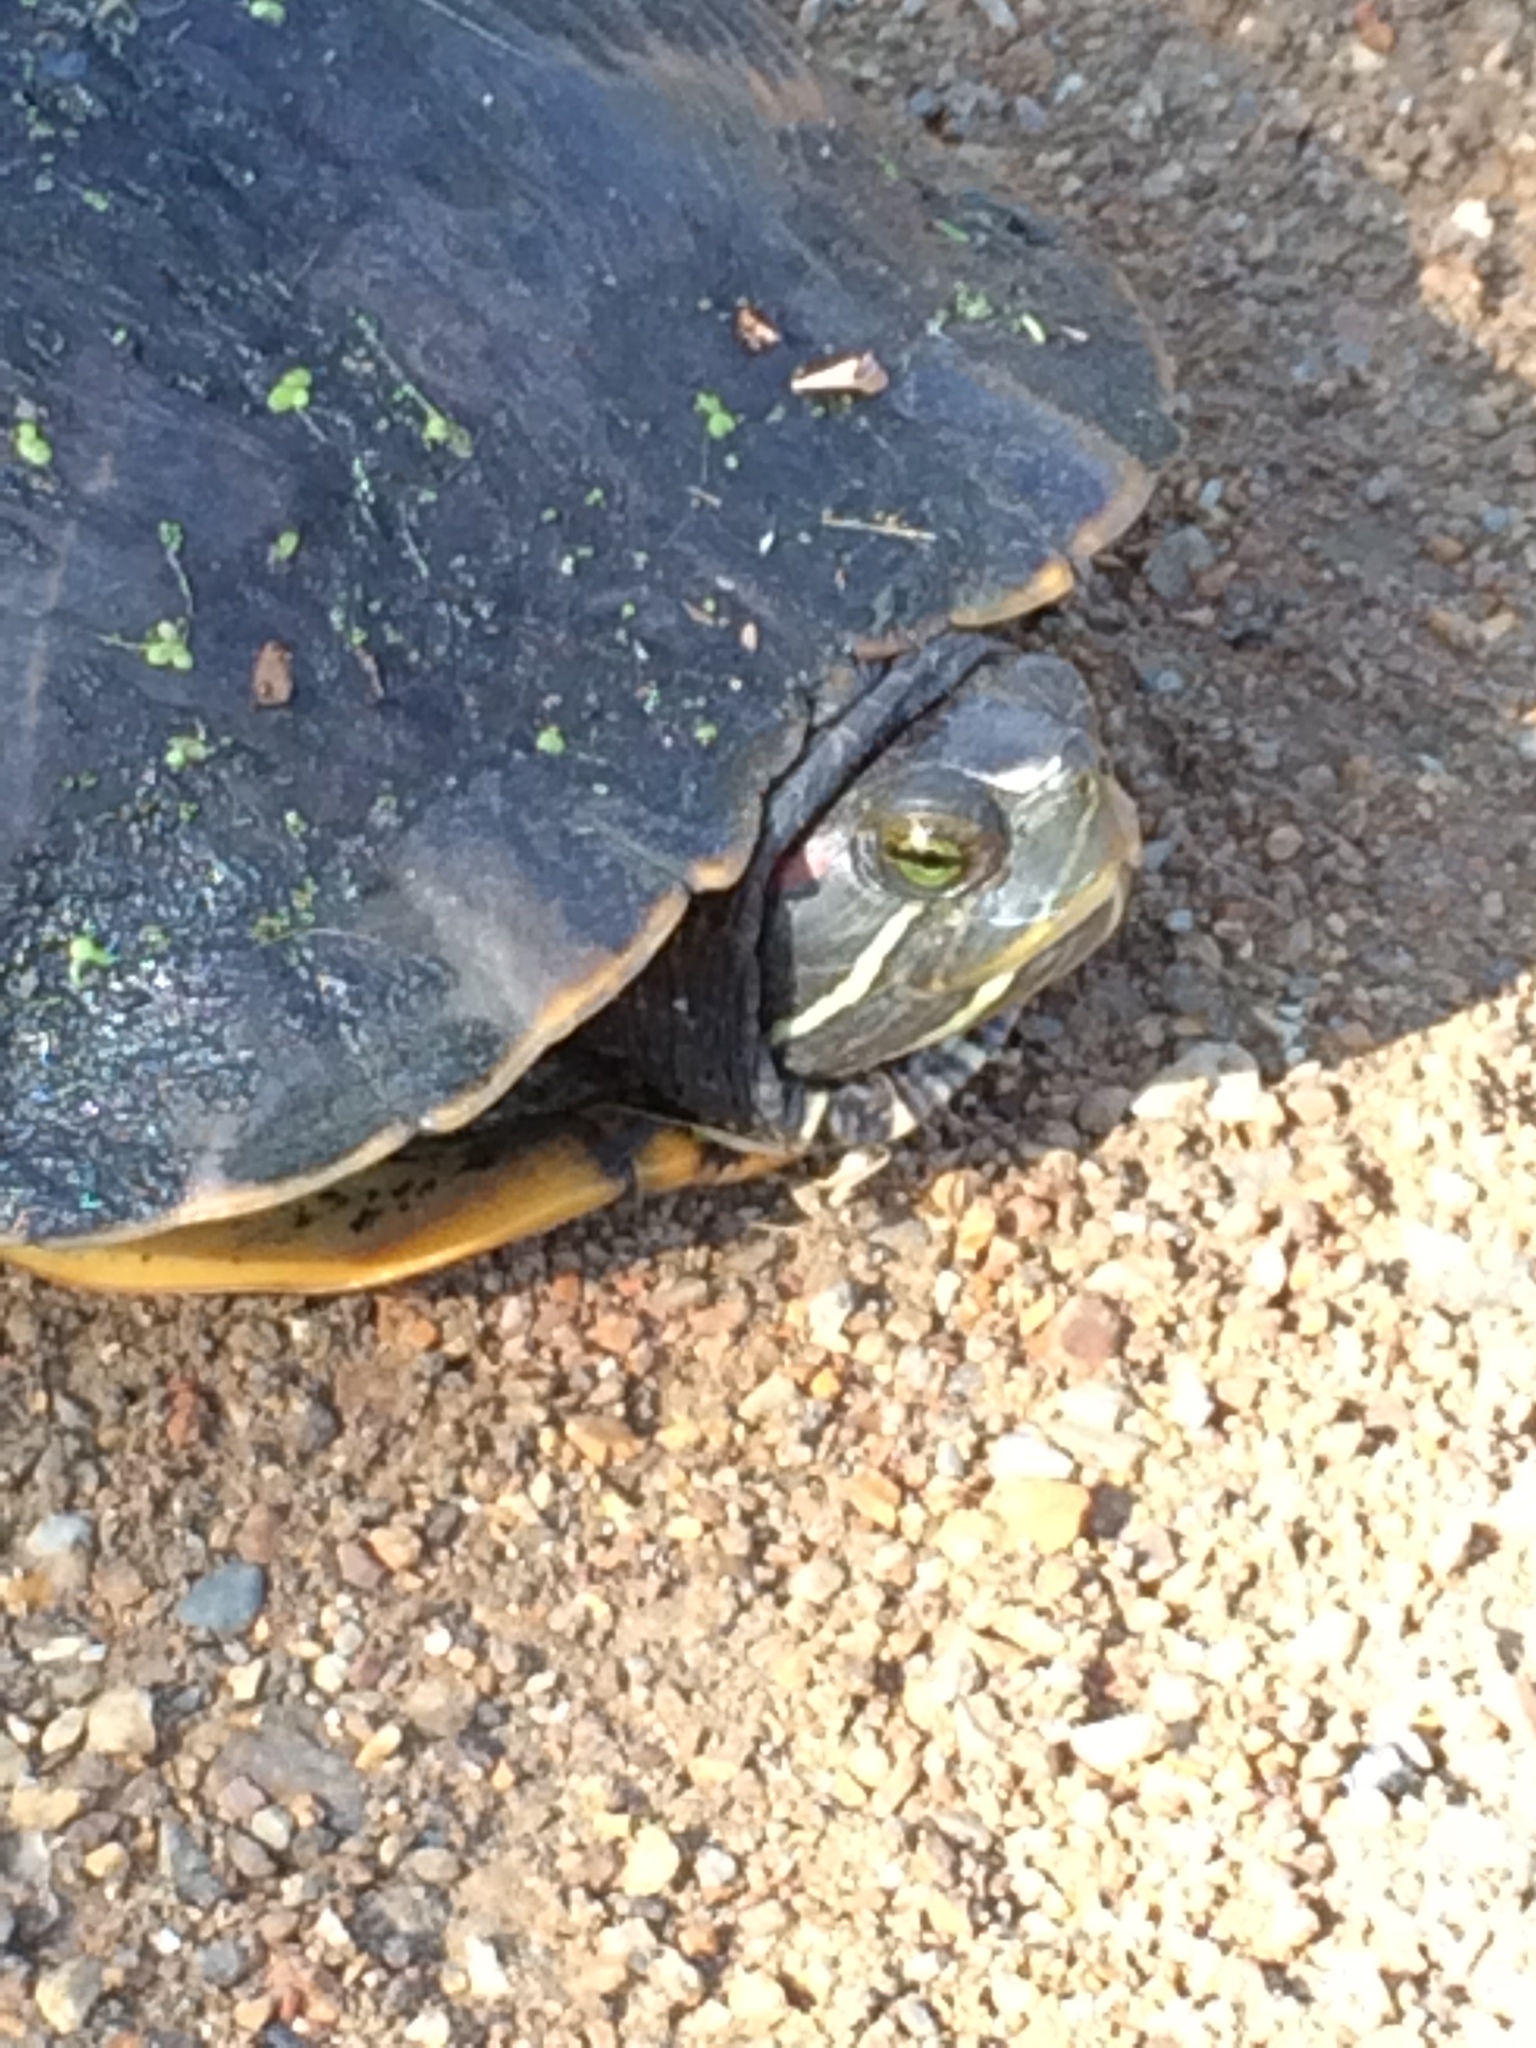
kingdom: Animalia
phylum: Chordata
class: Testudines
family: Emydidae
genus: Trachemys
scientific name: Trachemys scripta
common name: Slider
